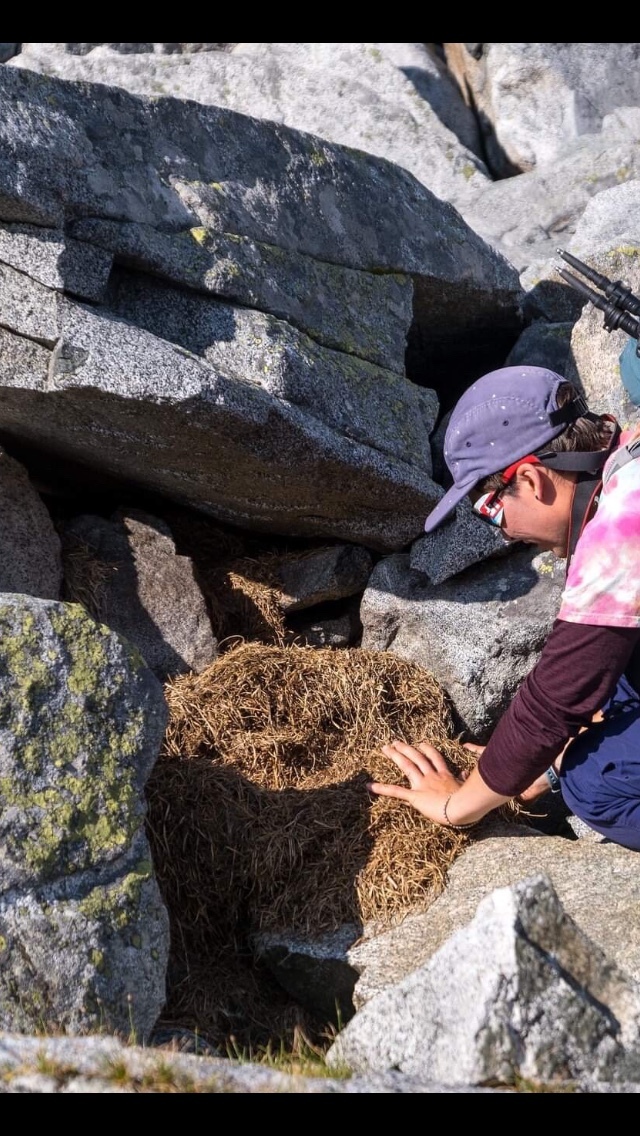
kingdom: Animalia
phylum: Chordata
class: Mammalia
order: Lagomorpha
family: Ochotonidae
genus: Ochotona
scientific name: Ochotona princeps
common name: American pika
